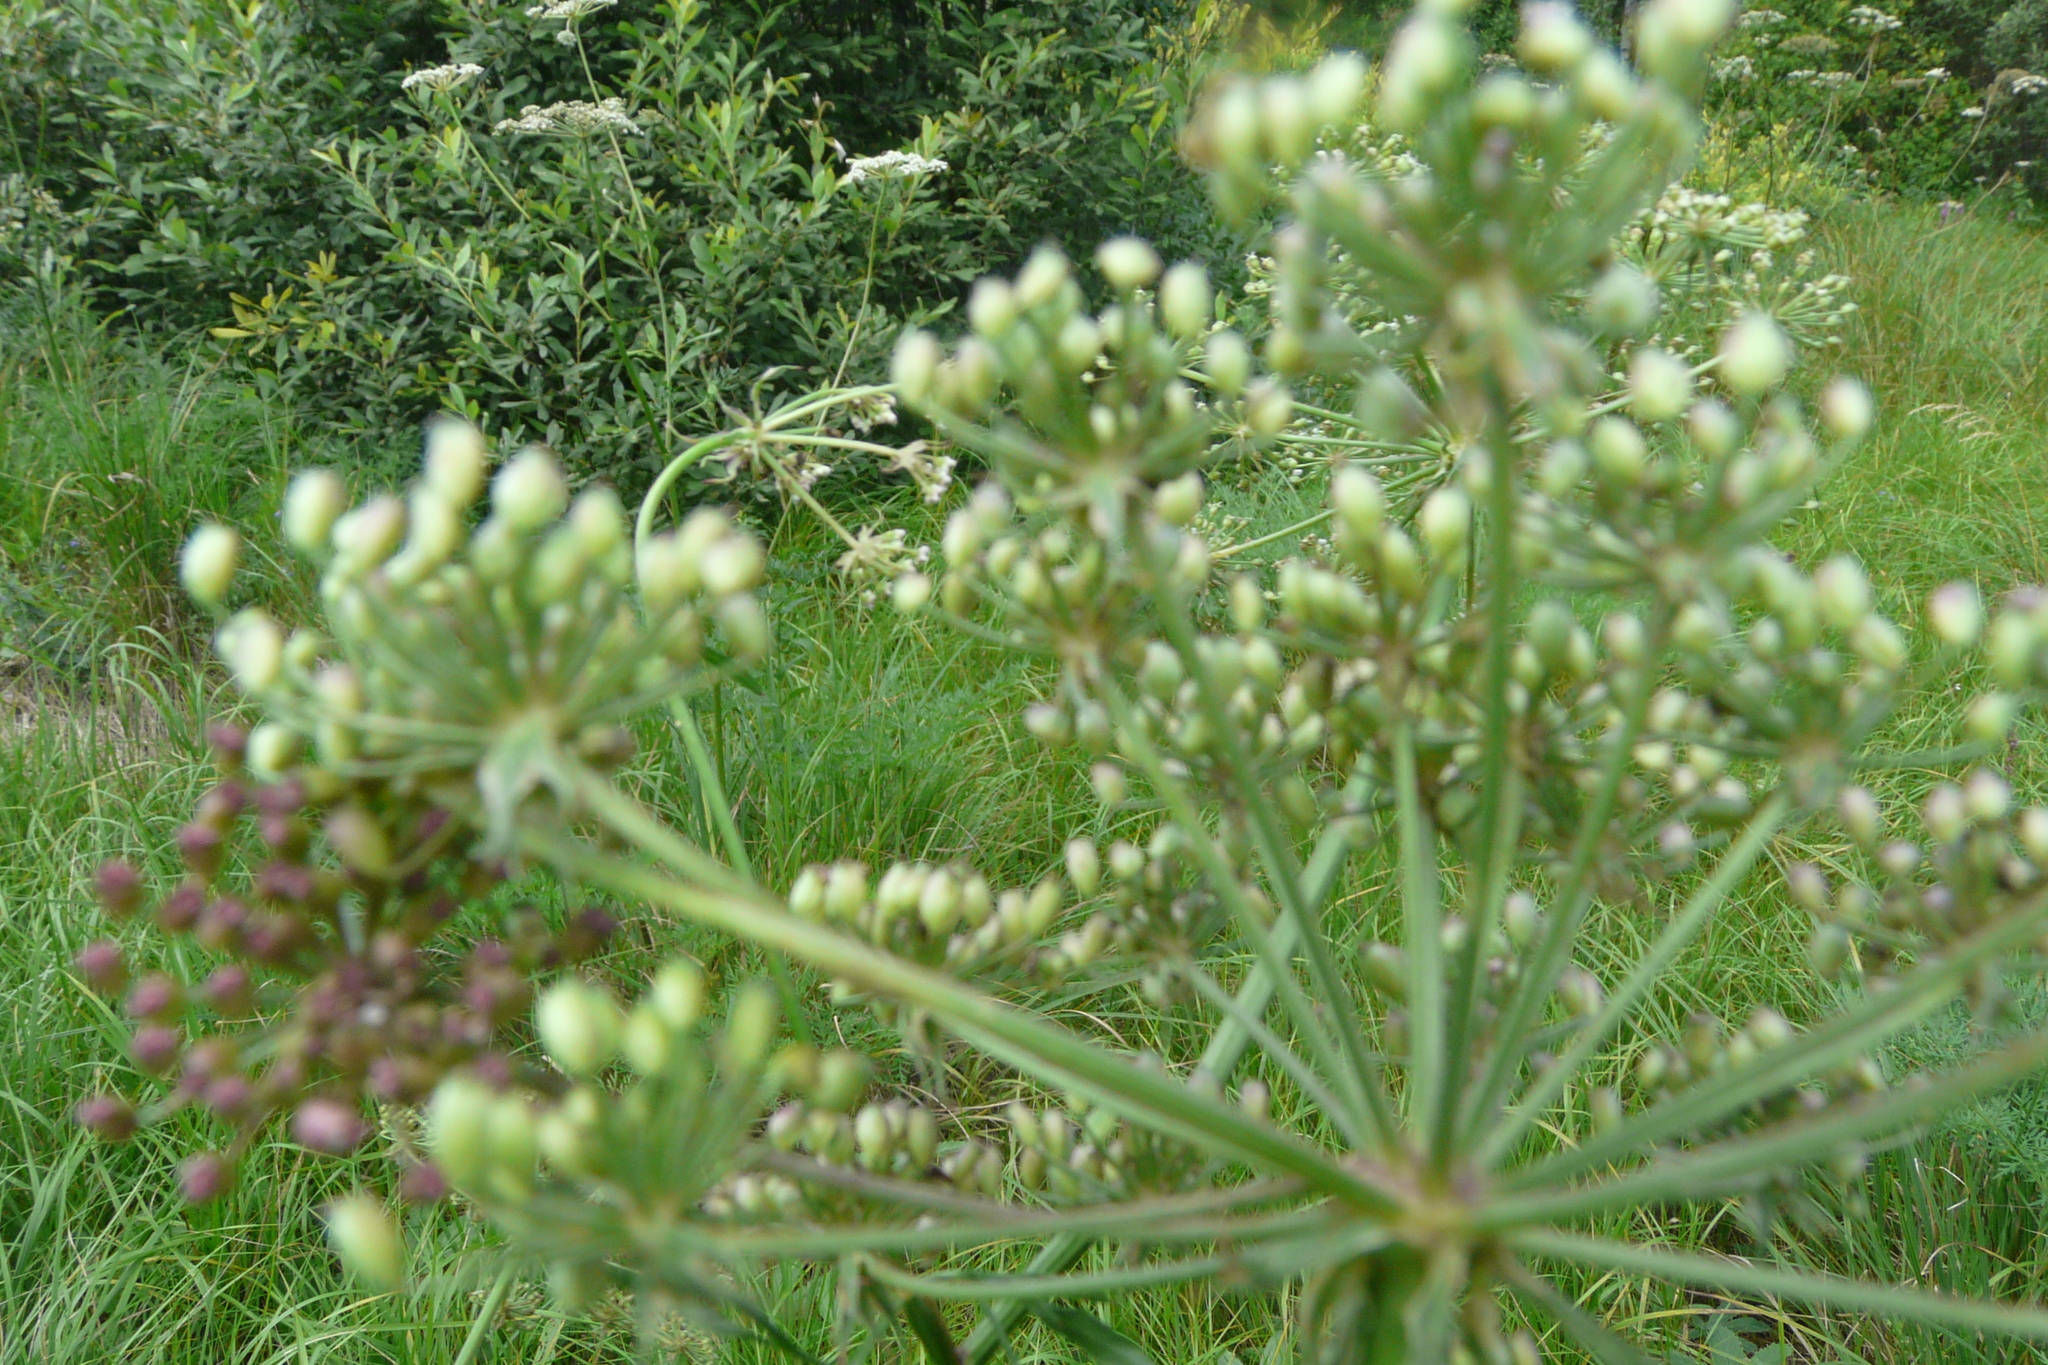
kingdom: Plantae
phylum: Tracheophyta
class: Magnoliopsida
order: Apiales
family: Apiaceae
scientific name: Apiaceae
